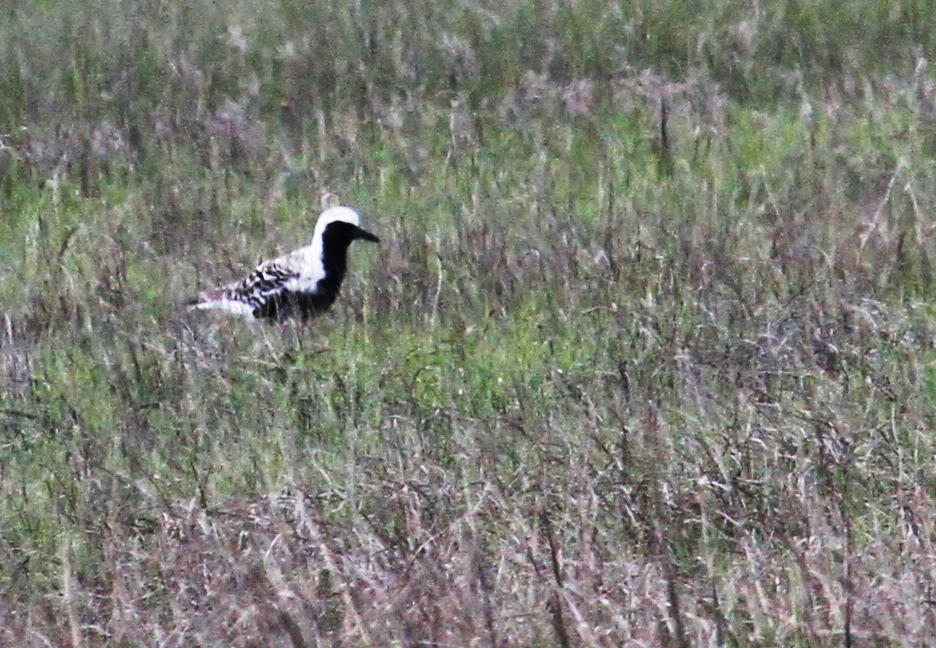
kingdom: Animalia
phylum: Chordata
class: Aves
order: Charadriiformes
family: Charadriidae
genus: Pluvialis
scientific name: Pluvialis squatarola
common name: Grey plover
